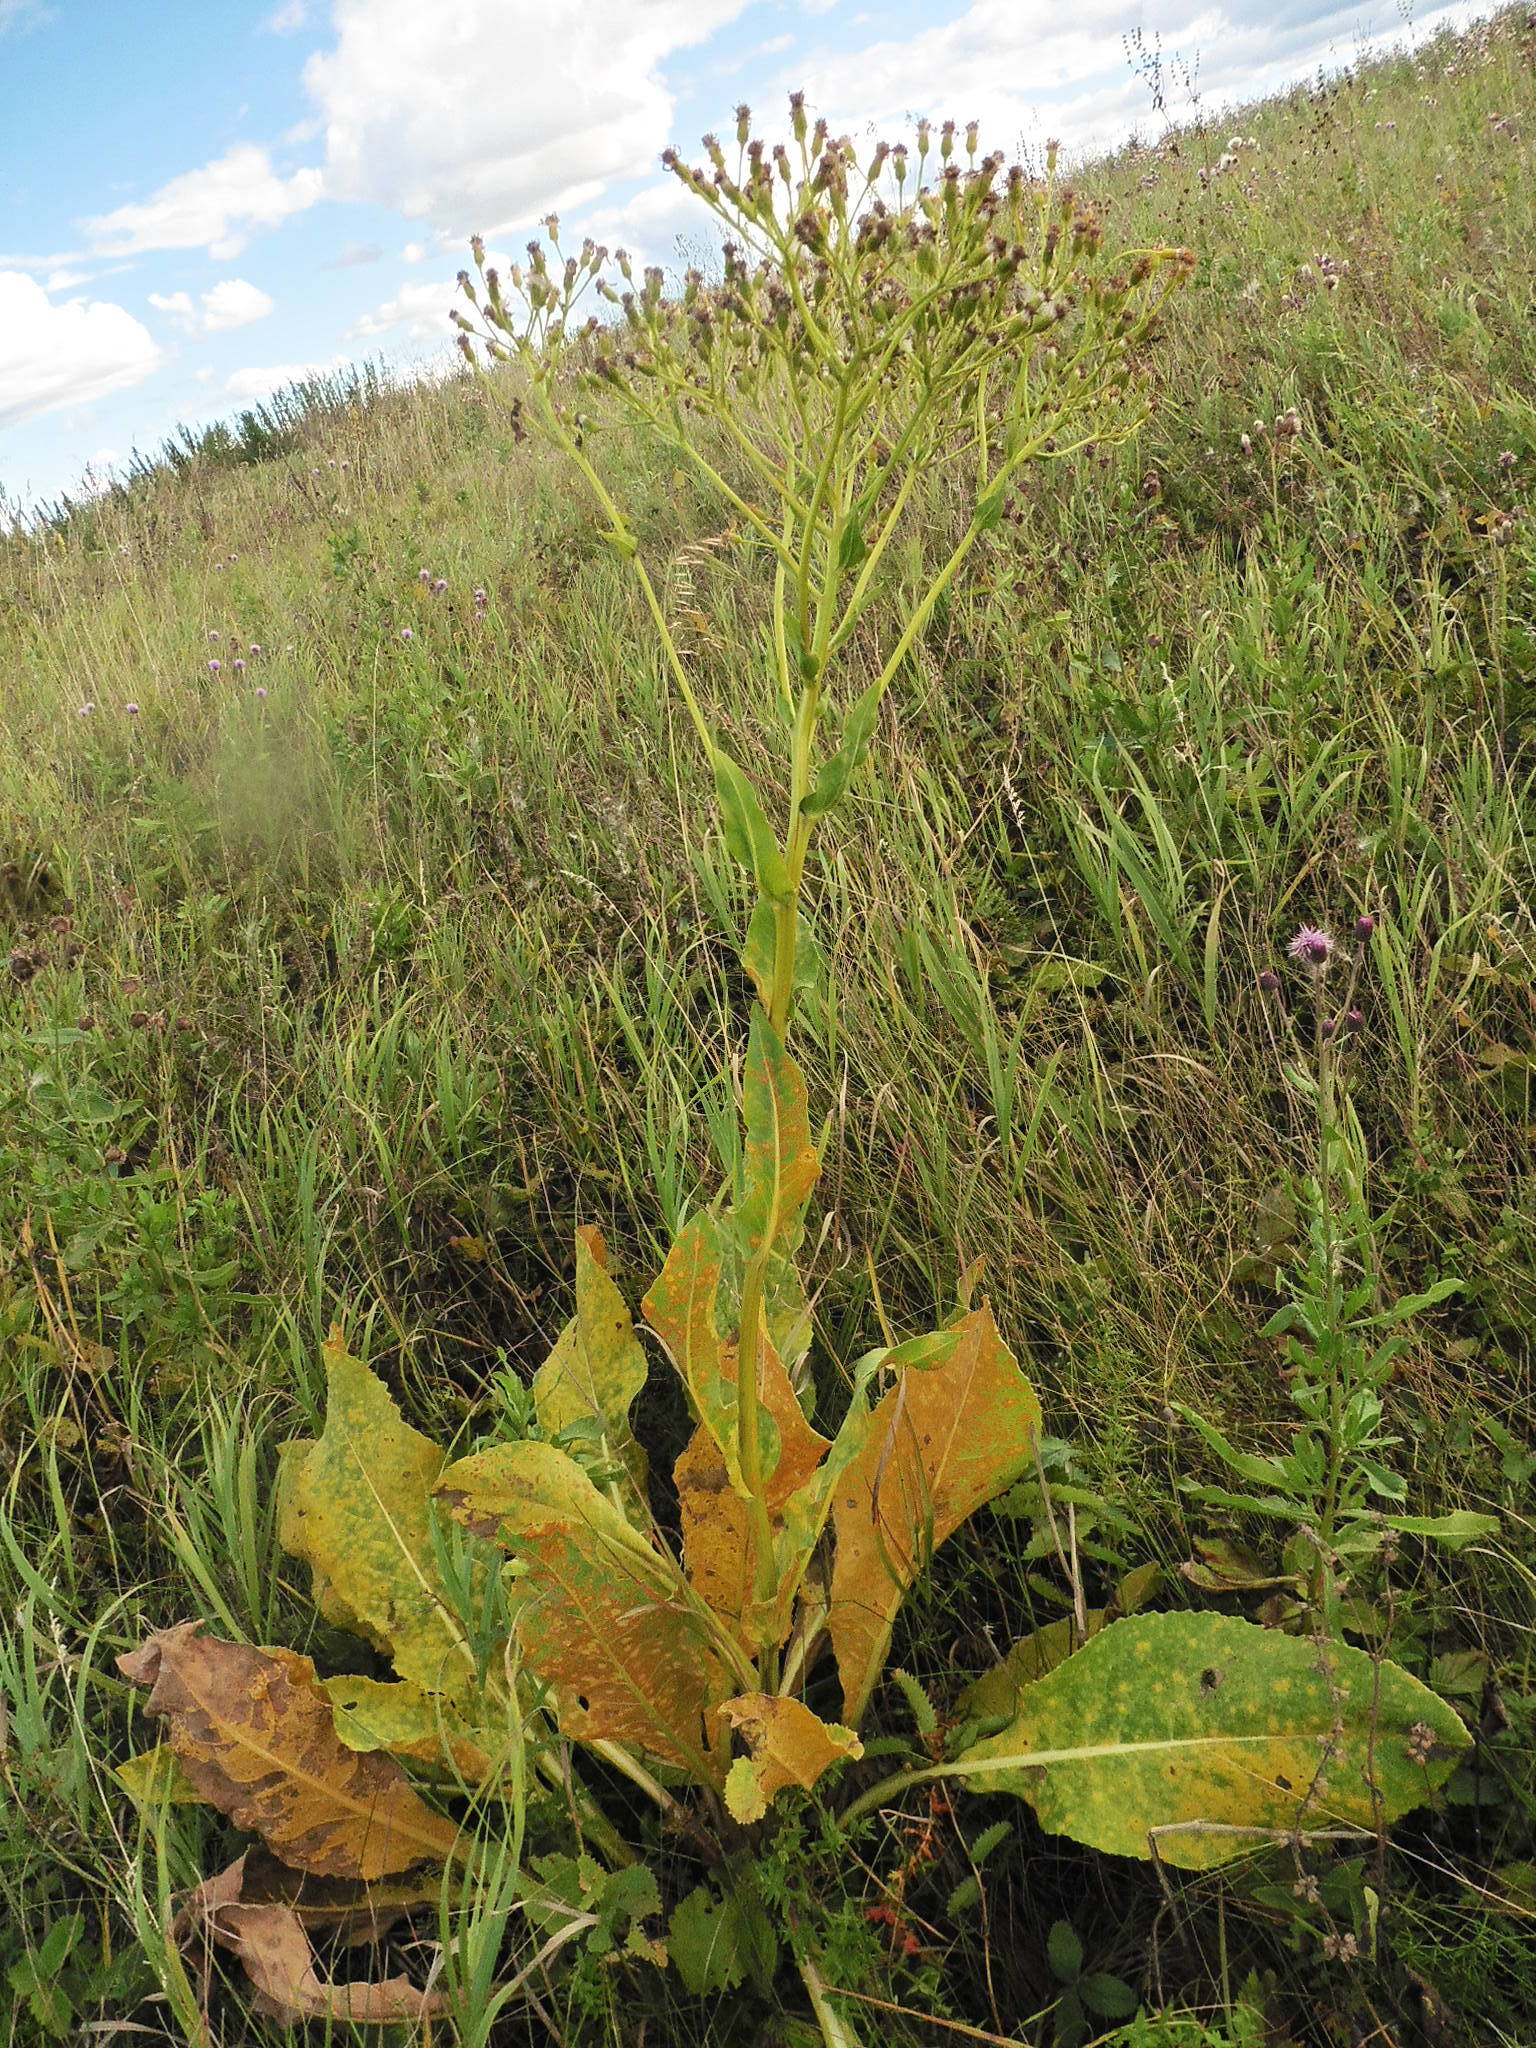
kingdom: Plantae
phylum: Tracheophyta
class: Magnoliopsida
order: Asterales
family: Asteraceae
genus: Senecio
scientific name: Senecio doria
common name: Golden ragwort
